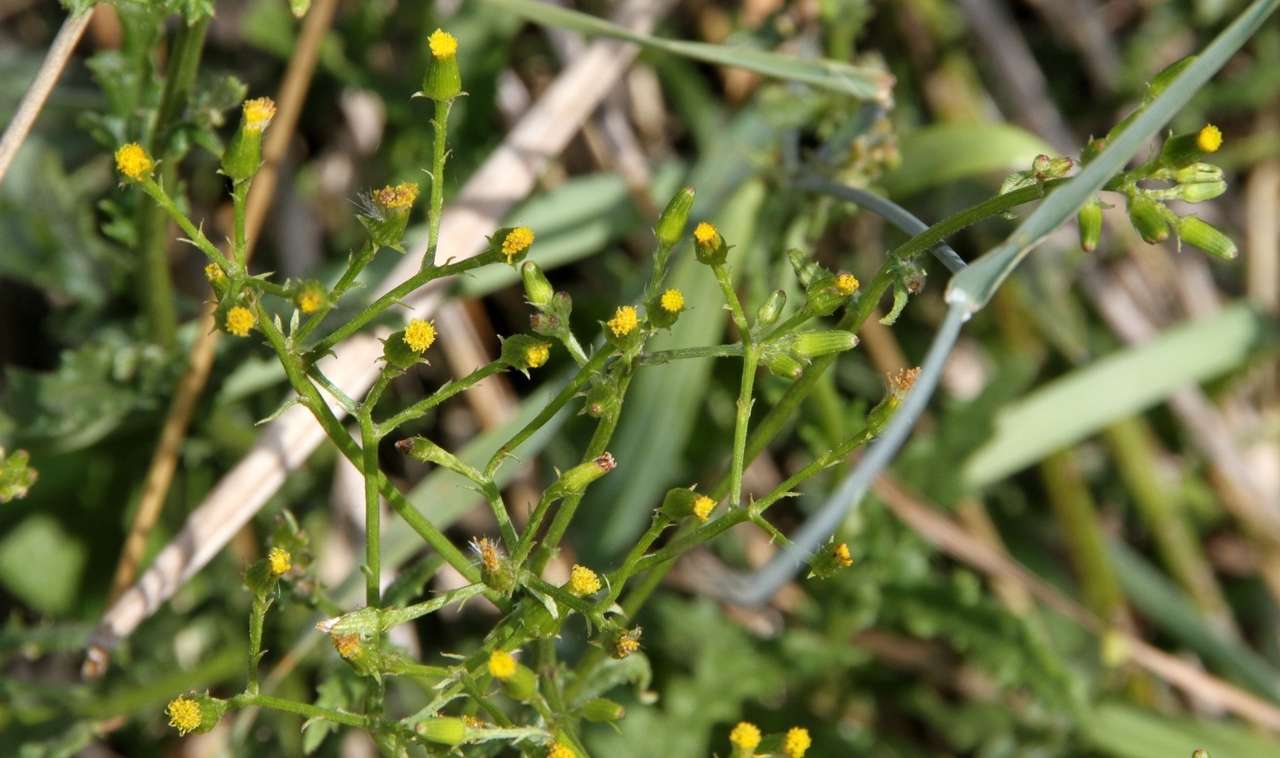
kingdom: Plantae
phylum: Tracheophyta
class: Magnoliopsida
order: Asterales
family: Asteraceae
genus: Senecio
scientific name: Senecio hispidulus
